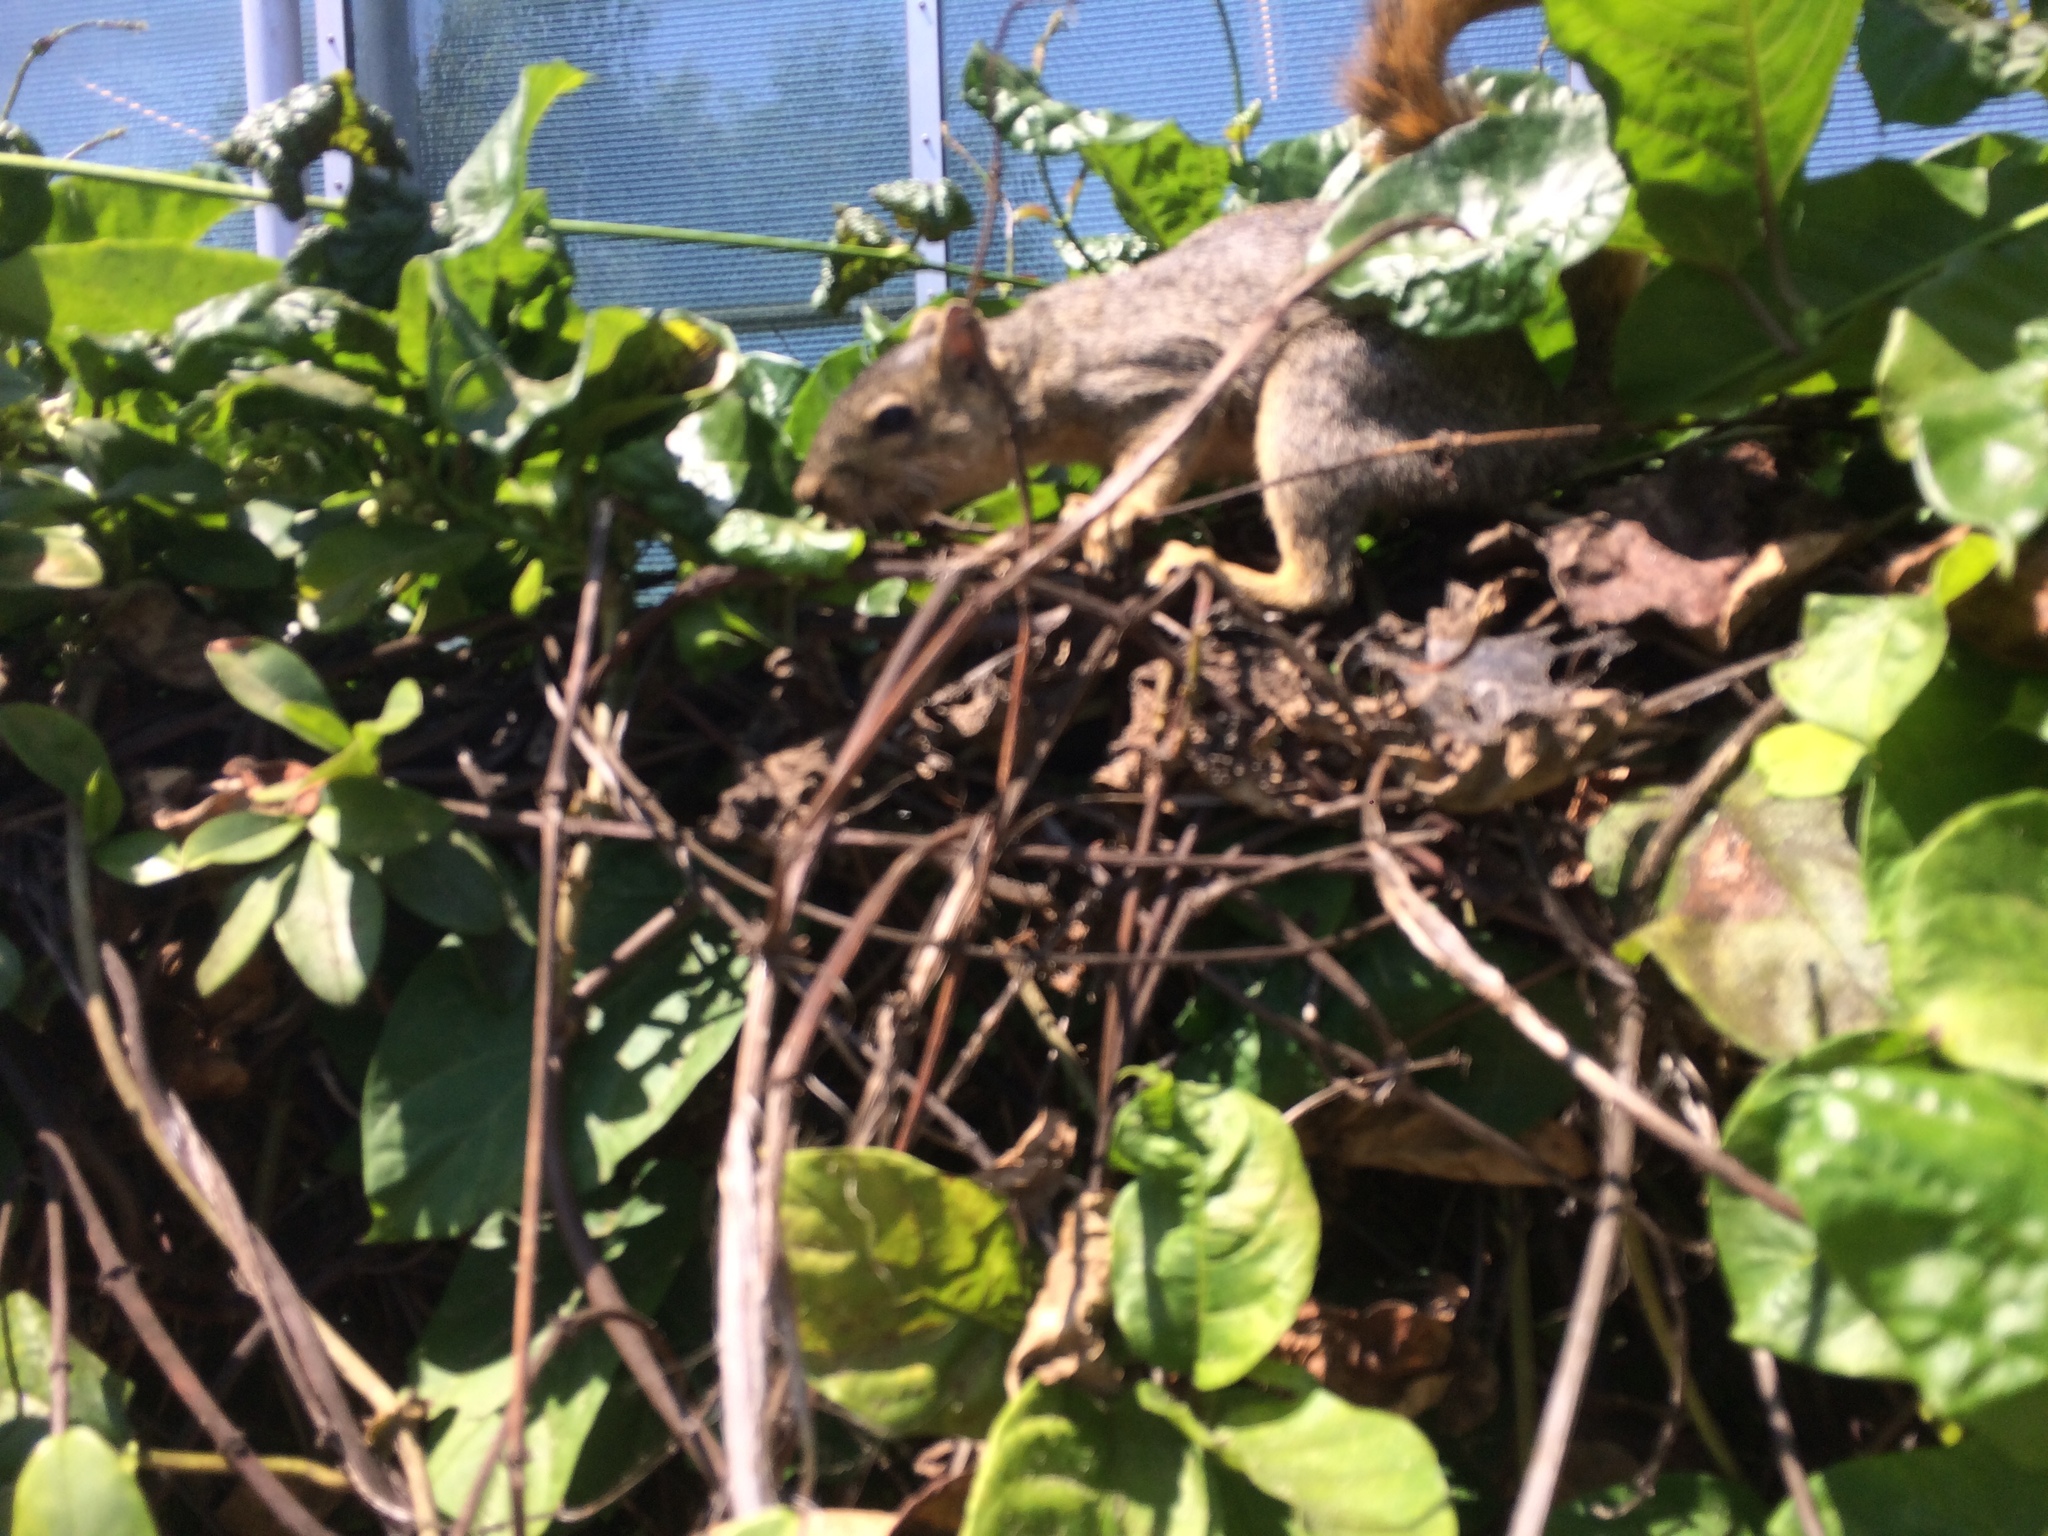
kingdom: Animalia
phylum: Chordata
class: Mammalia
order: Rodentia
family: Sciuridae
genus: Sciurus
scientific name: Sciurus niger
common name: Fox squirrel
